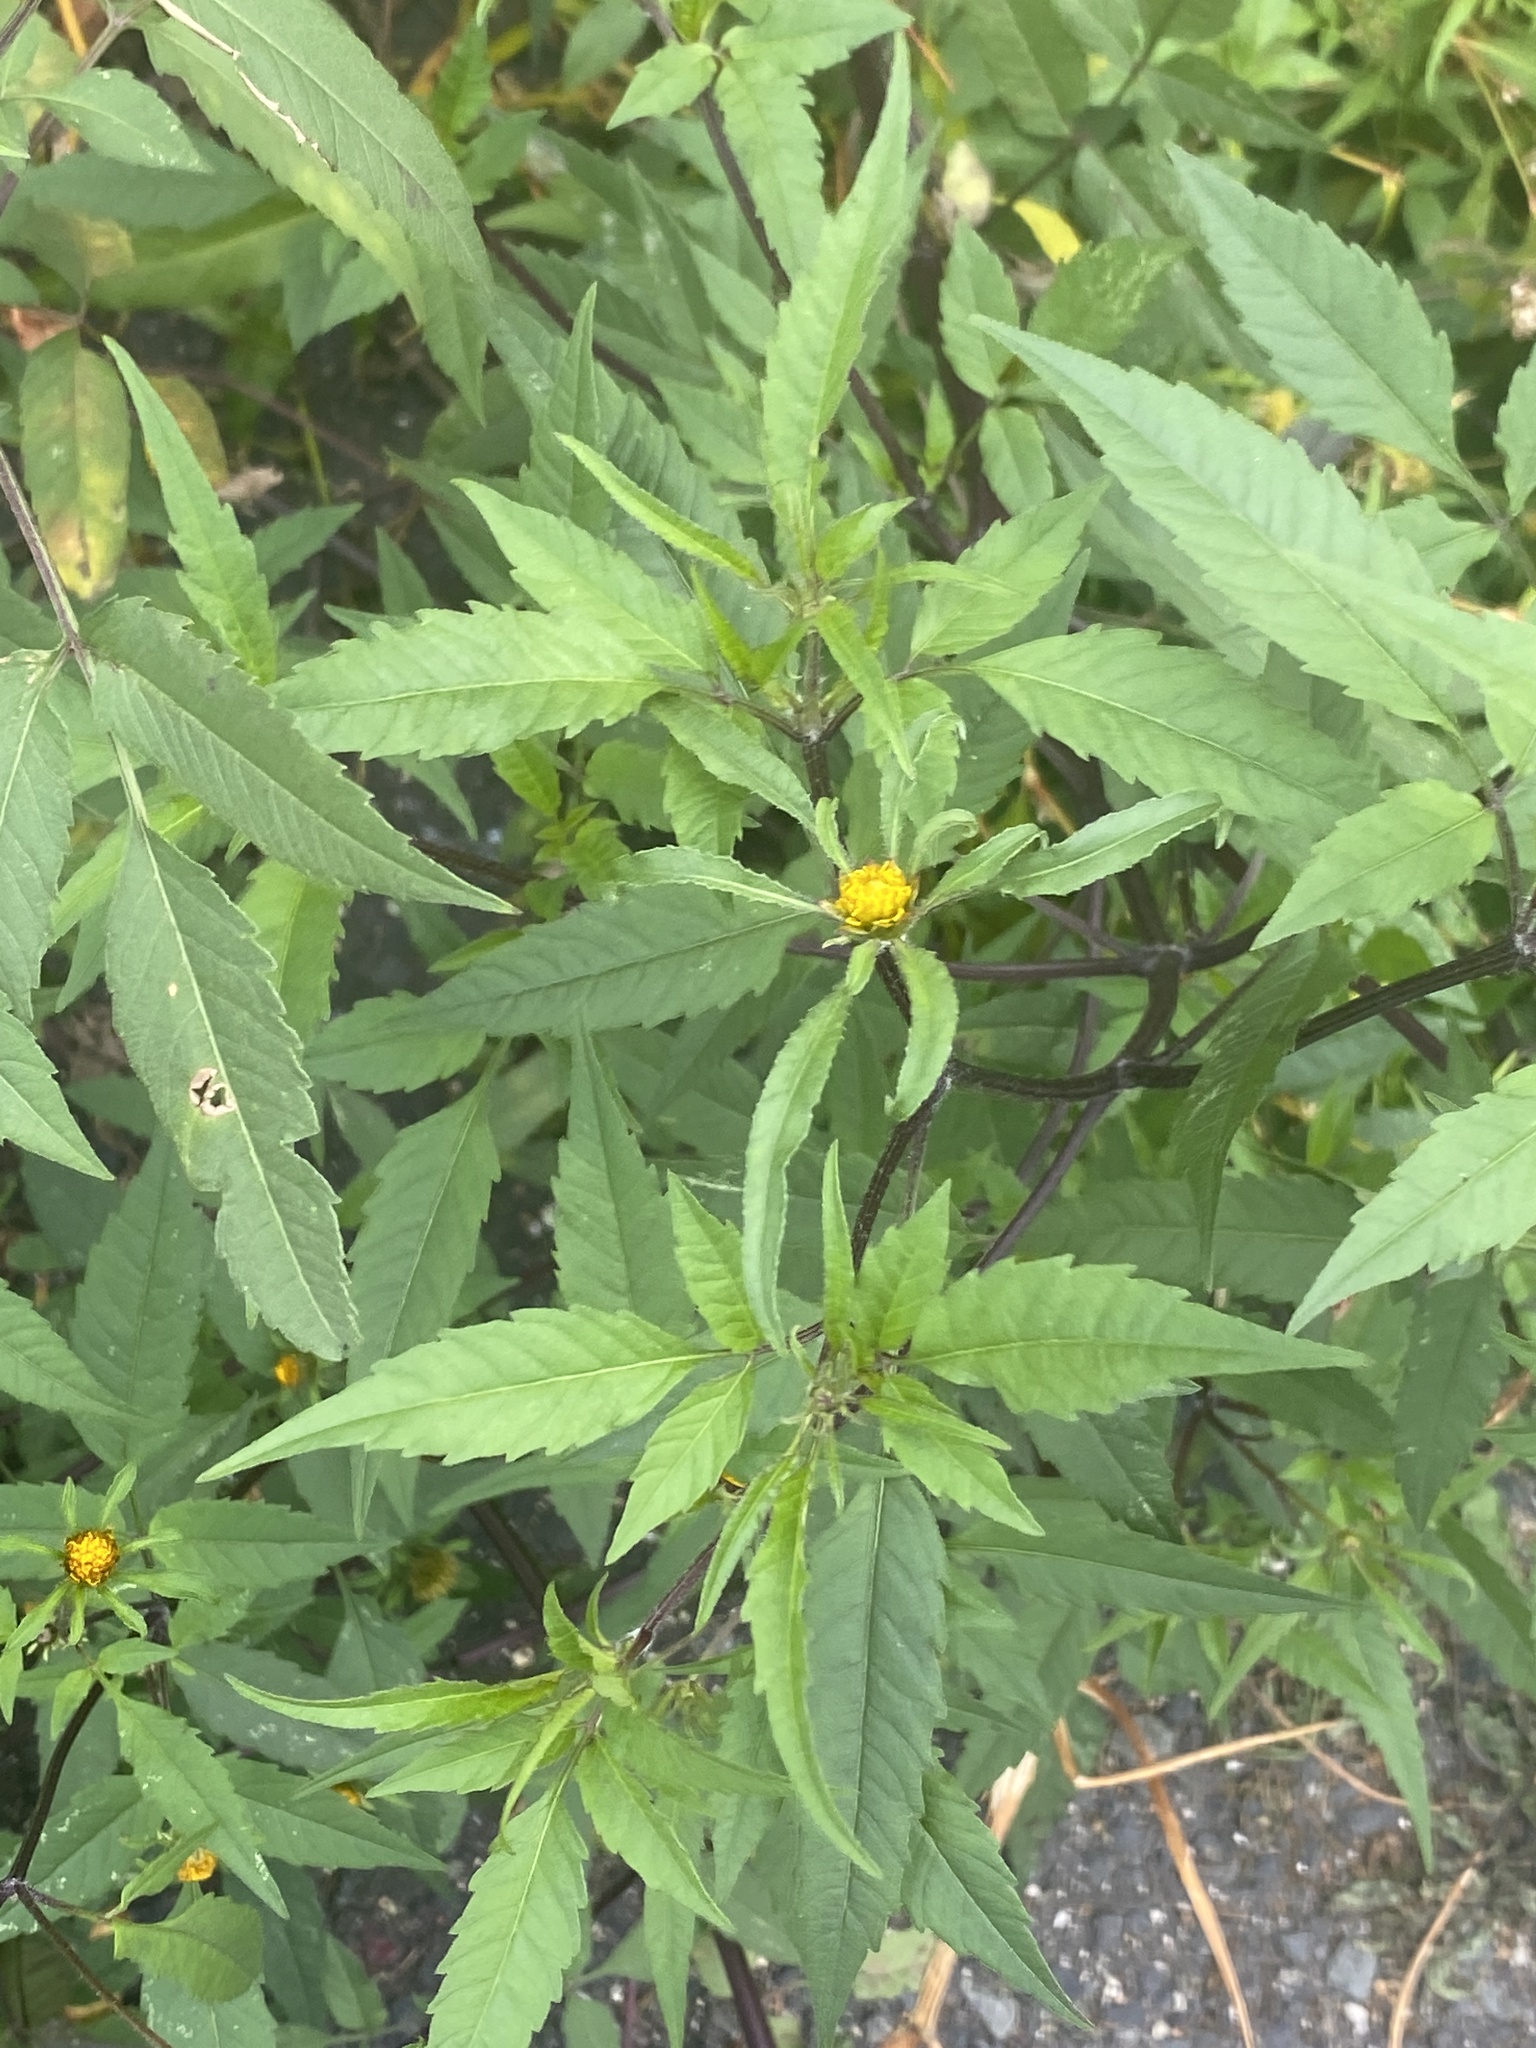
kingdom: Plantae
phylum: Tracheophyta
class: Magnoliopsida
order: Asterales
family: Asteraceae
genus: Bidens
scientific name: Bidens frondosa
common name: Beggarticks
